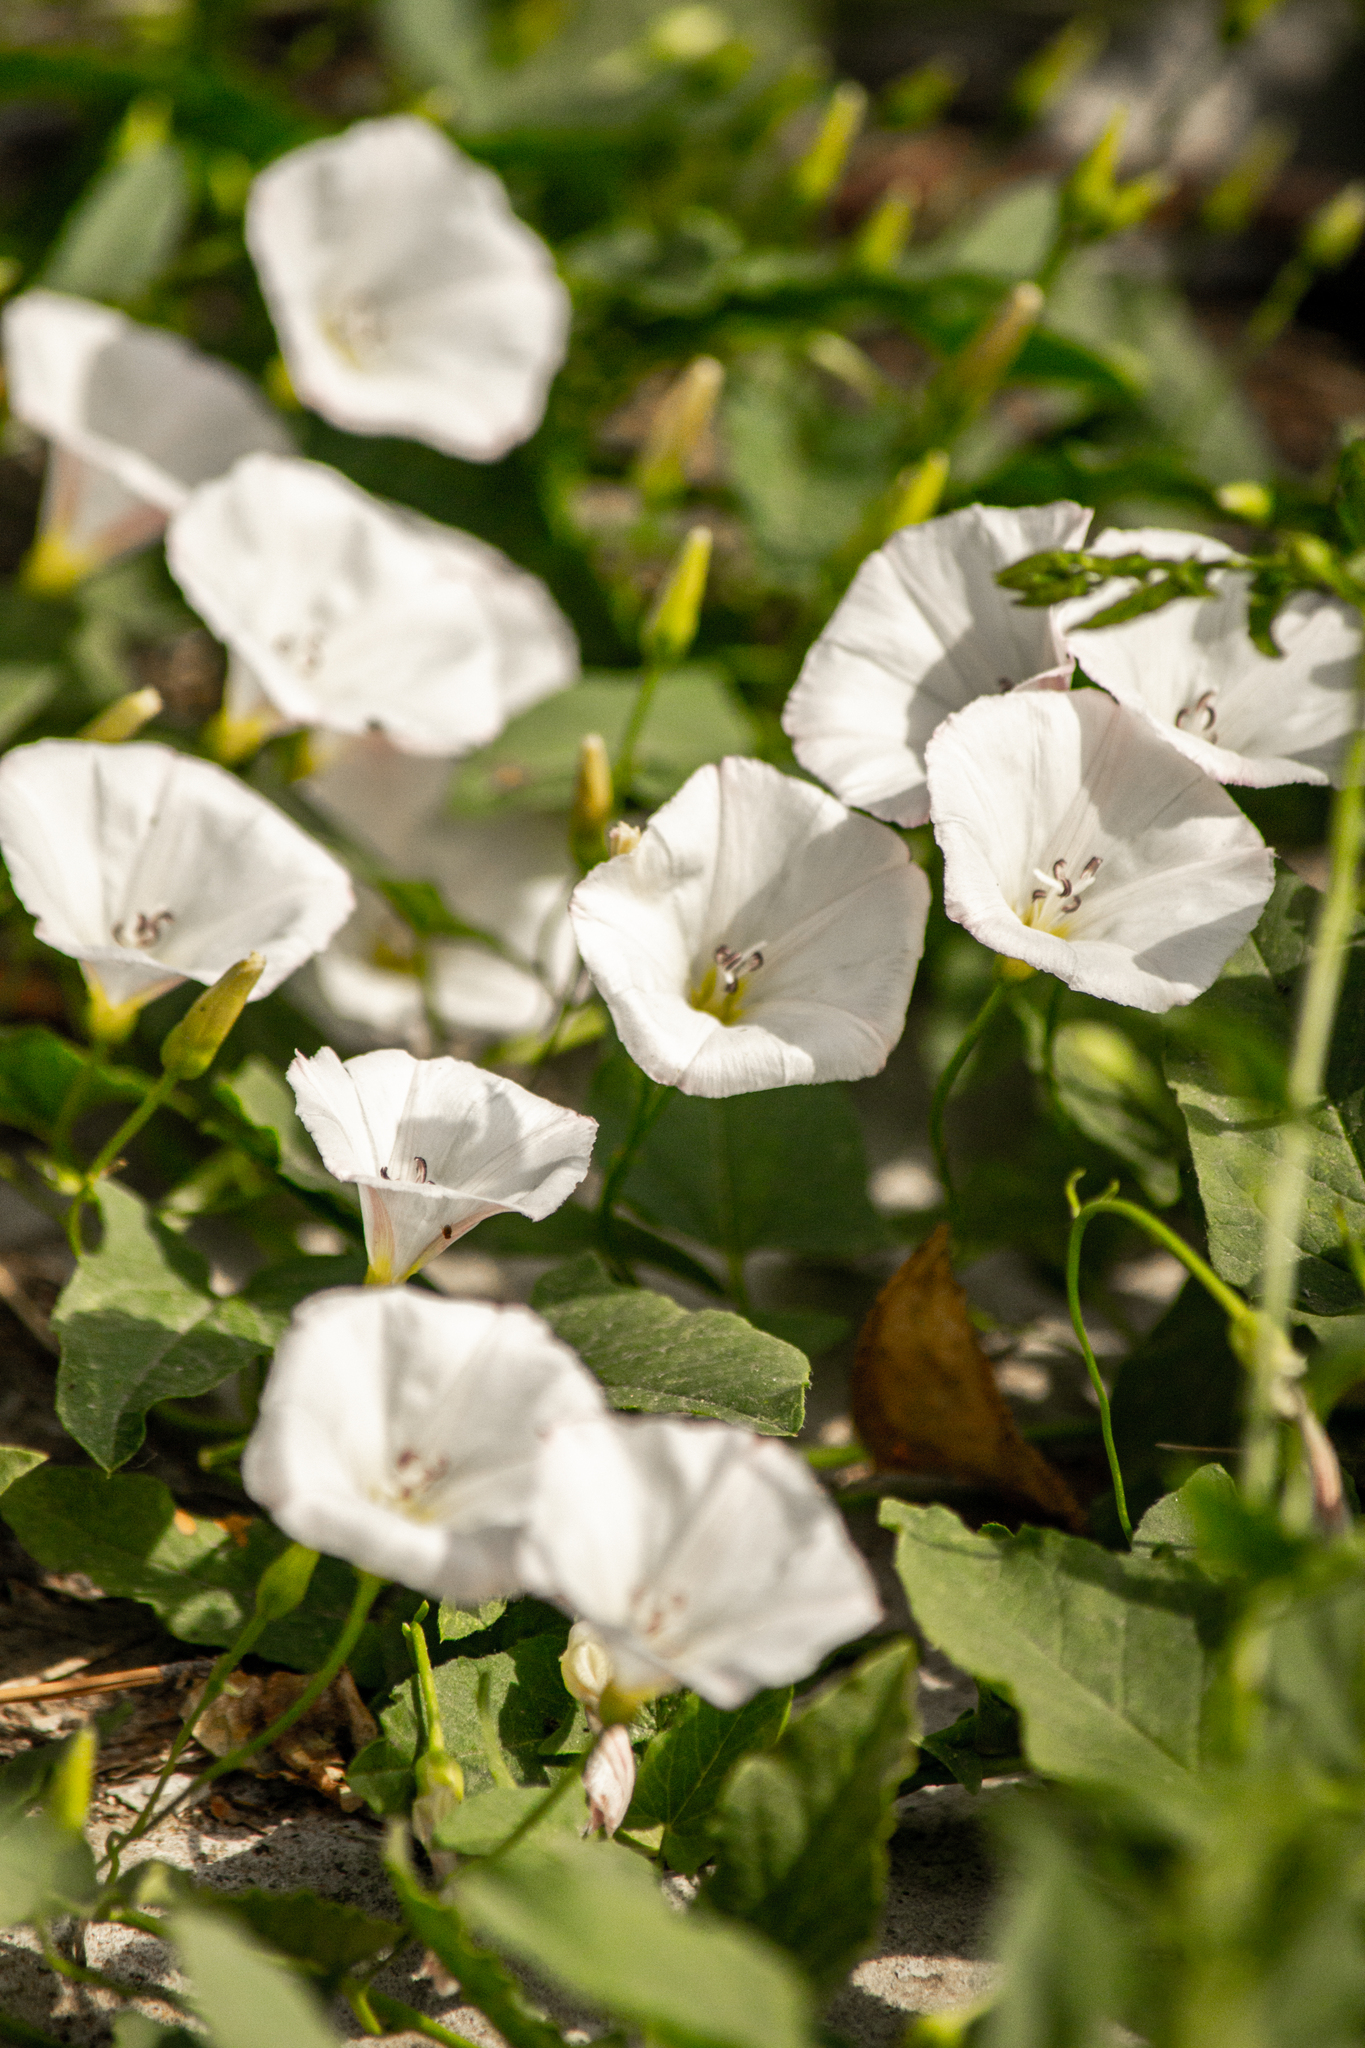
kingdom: Plantae
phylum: Tracheophyta
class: Magnoliopsida
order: Solanales
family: Convolvulaceae
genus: Convolvulus
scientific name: Convolvulus arvensis
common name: Field bindweed
